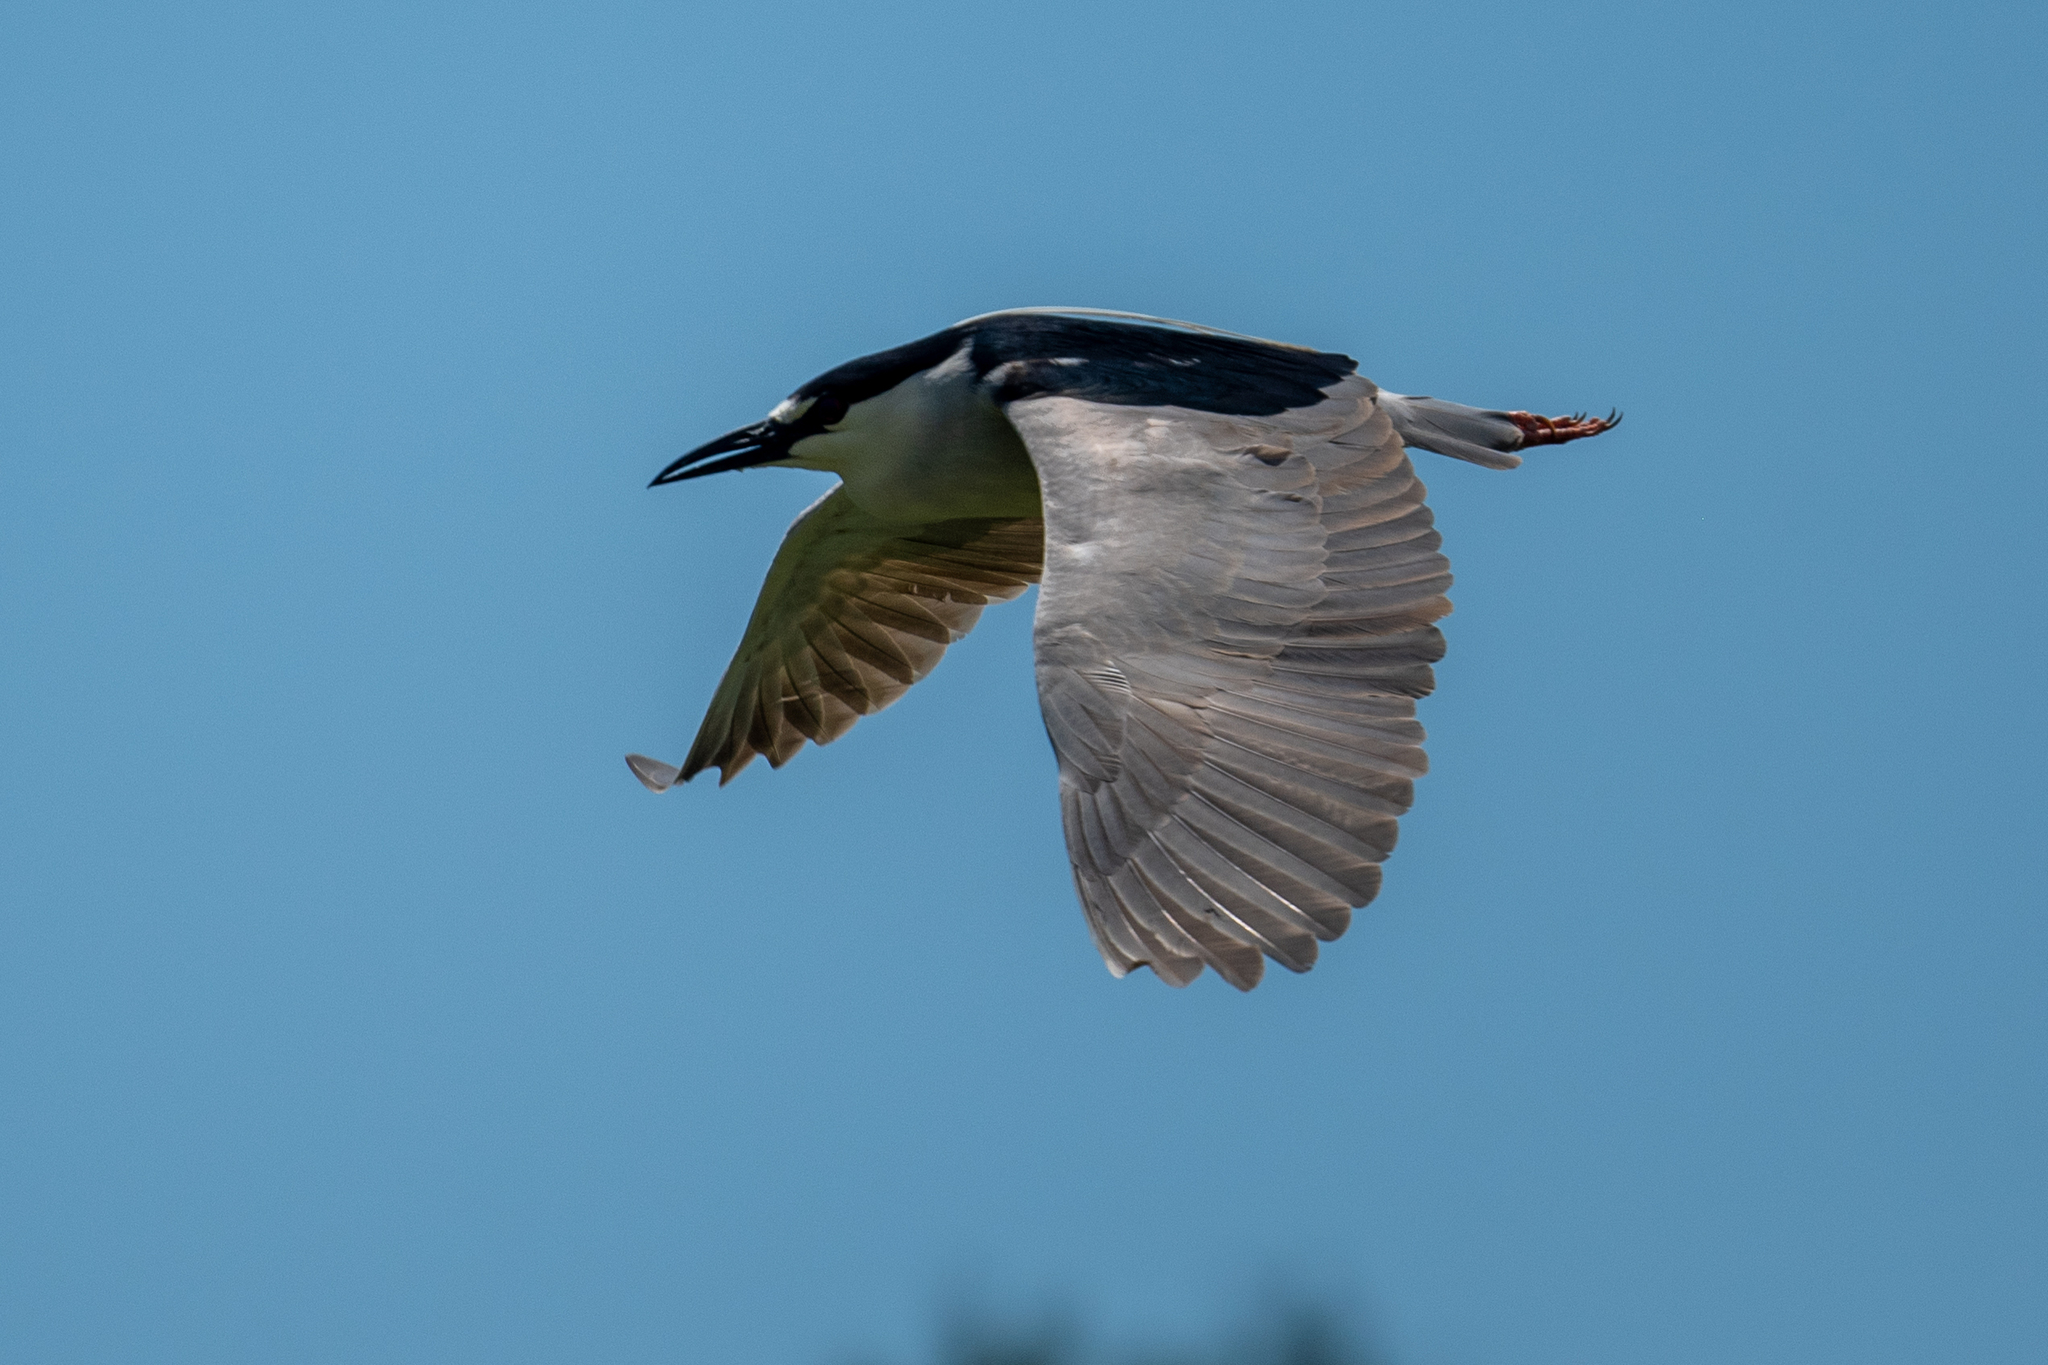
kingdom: Animalia
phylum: Chordata
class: Aves
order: Pelecaniformes
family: Ardeidae
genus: Nycticorax
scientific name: Nycticorax nycticorax
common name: Black-crowned night heron
